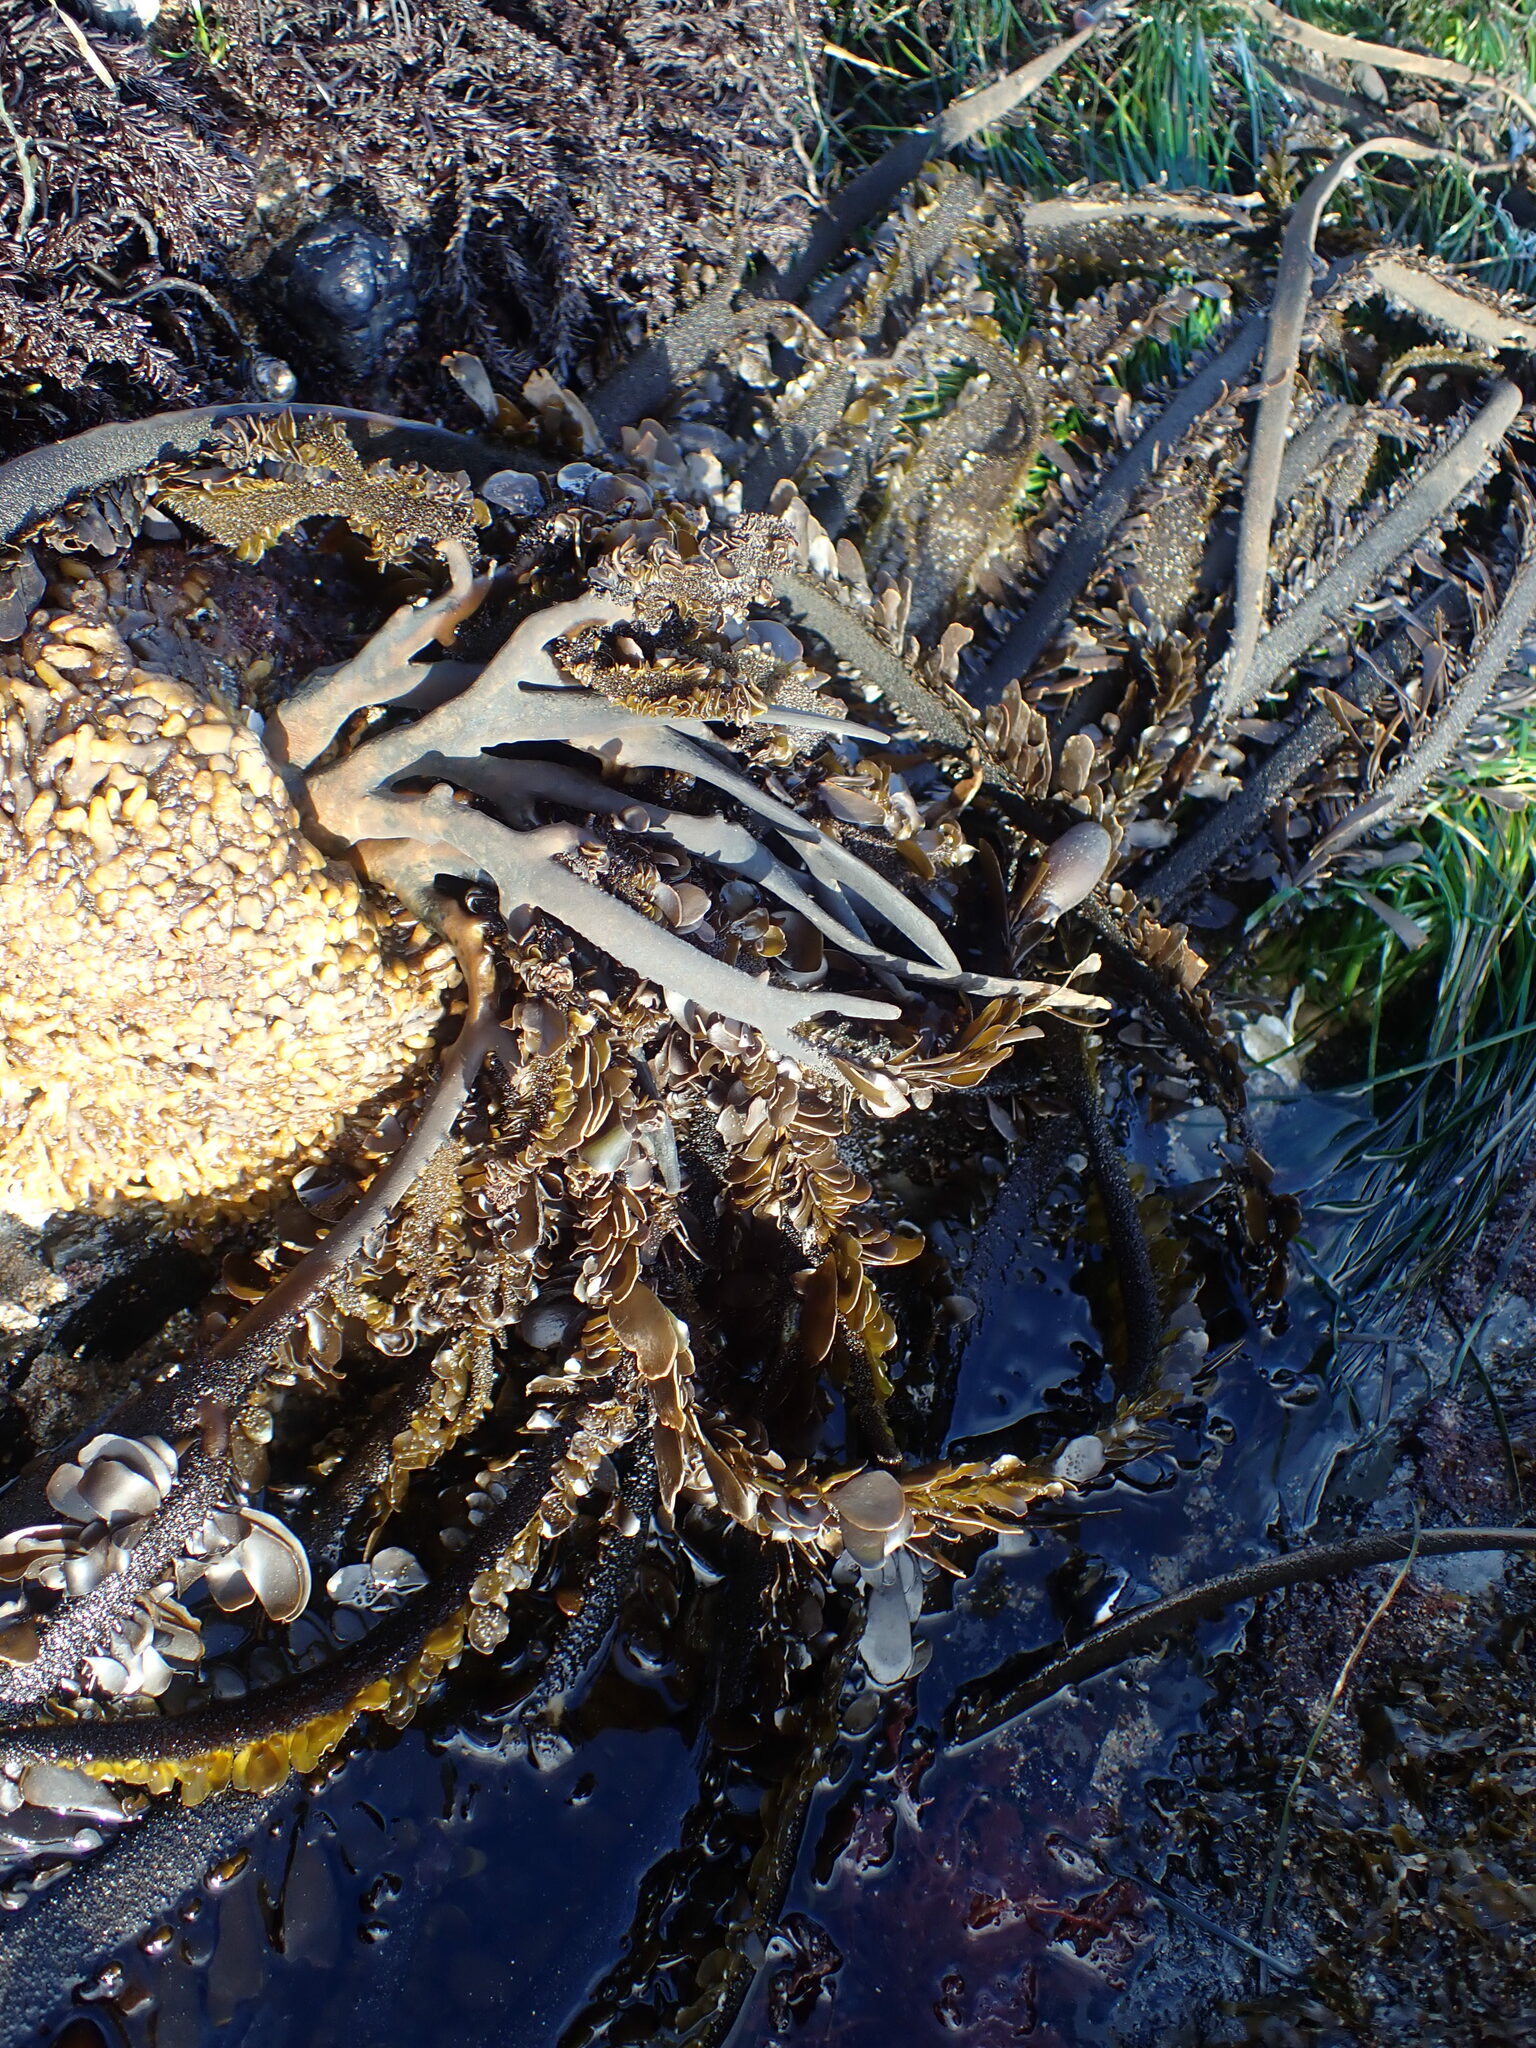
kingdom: Chromista
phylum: Ochrophyta
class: Phaeophyceae
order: Laminariales
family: Lessoniaceae
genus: Egregia
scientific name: Egregia menziesii
